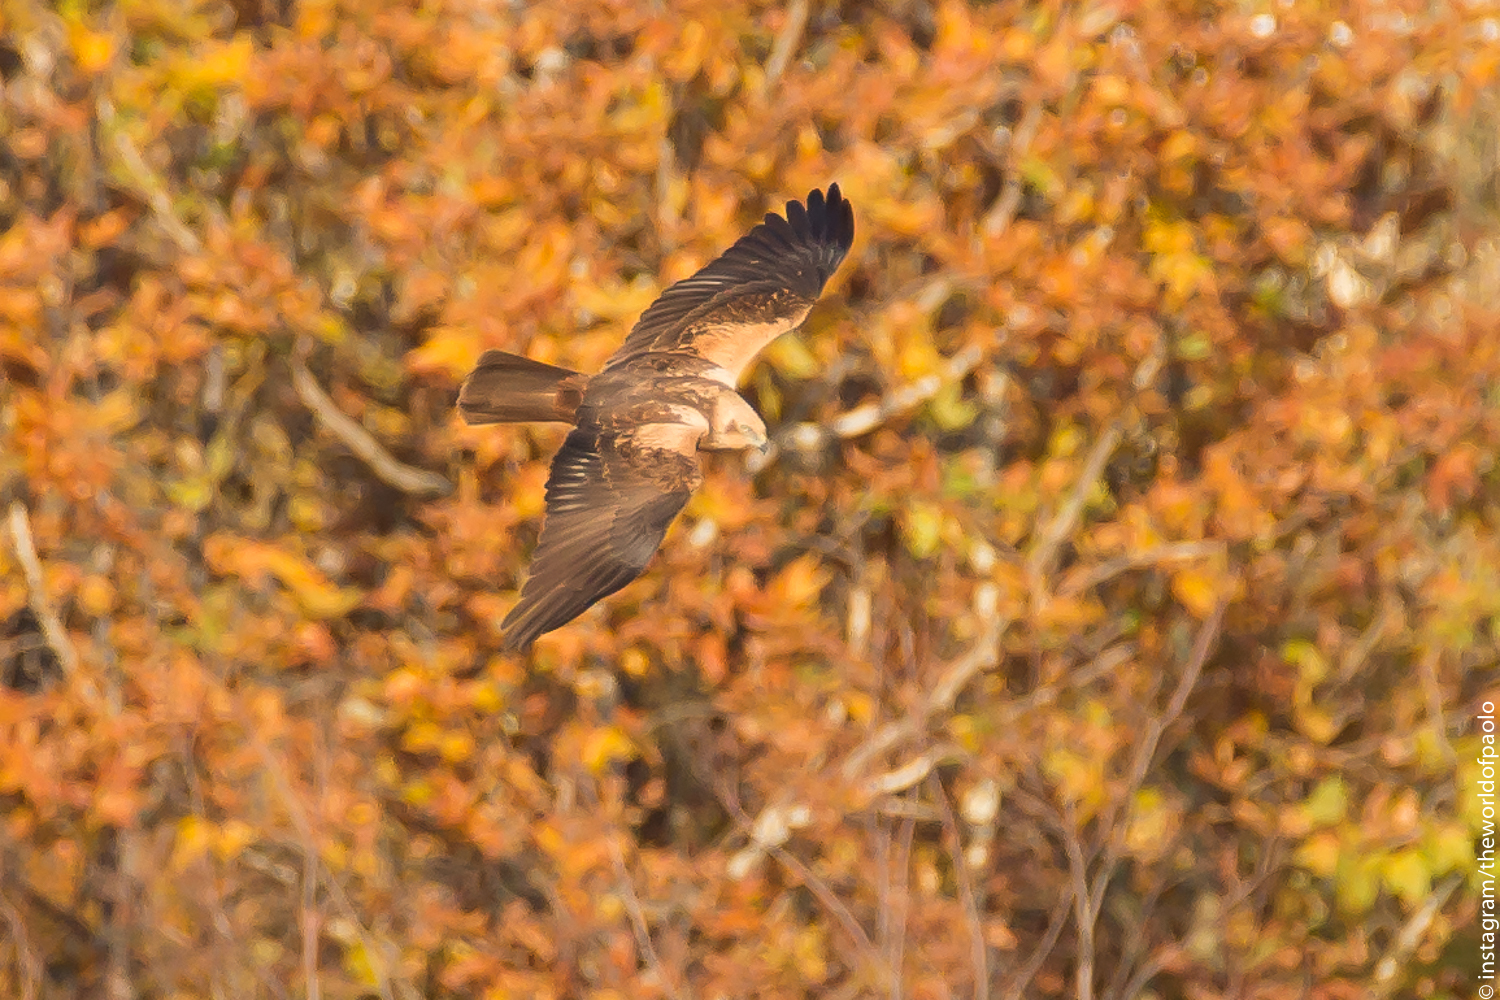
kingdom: Animalia
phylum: Chordata
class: Aves
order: Accipitriformes
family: Accipitridae
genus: Circus
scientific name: Circus aeruginosus
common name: Western marsh harrier
